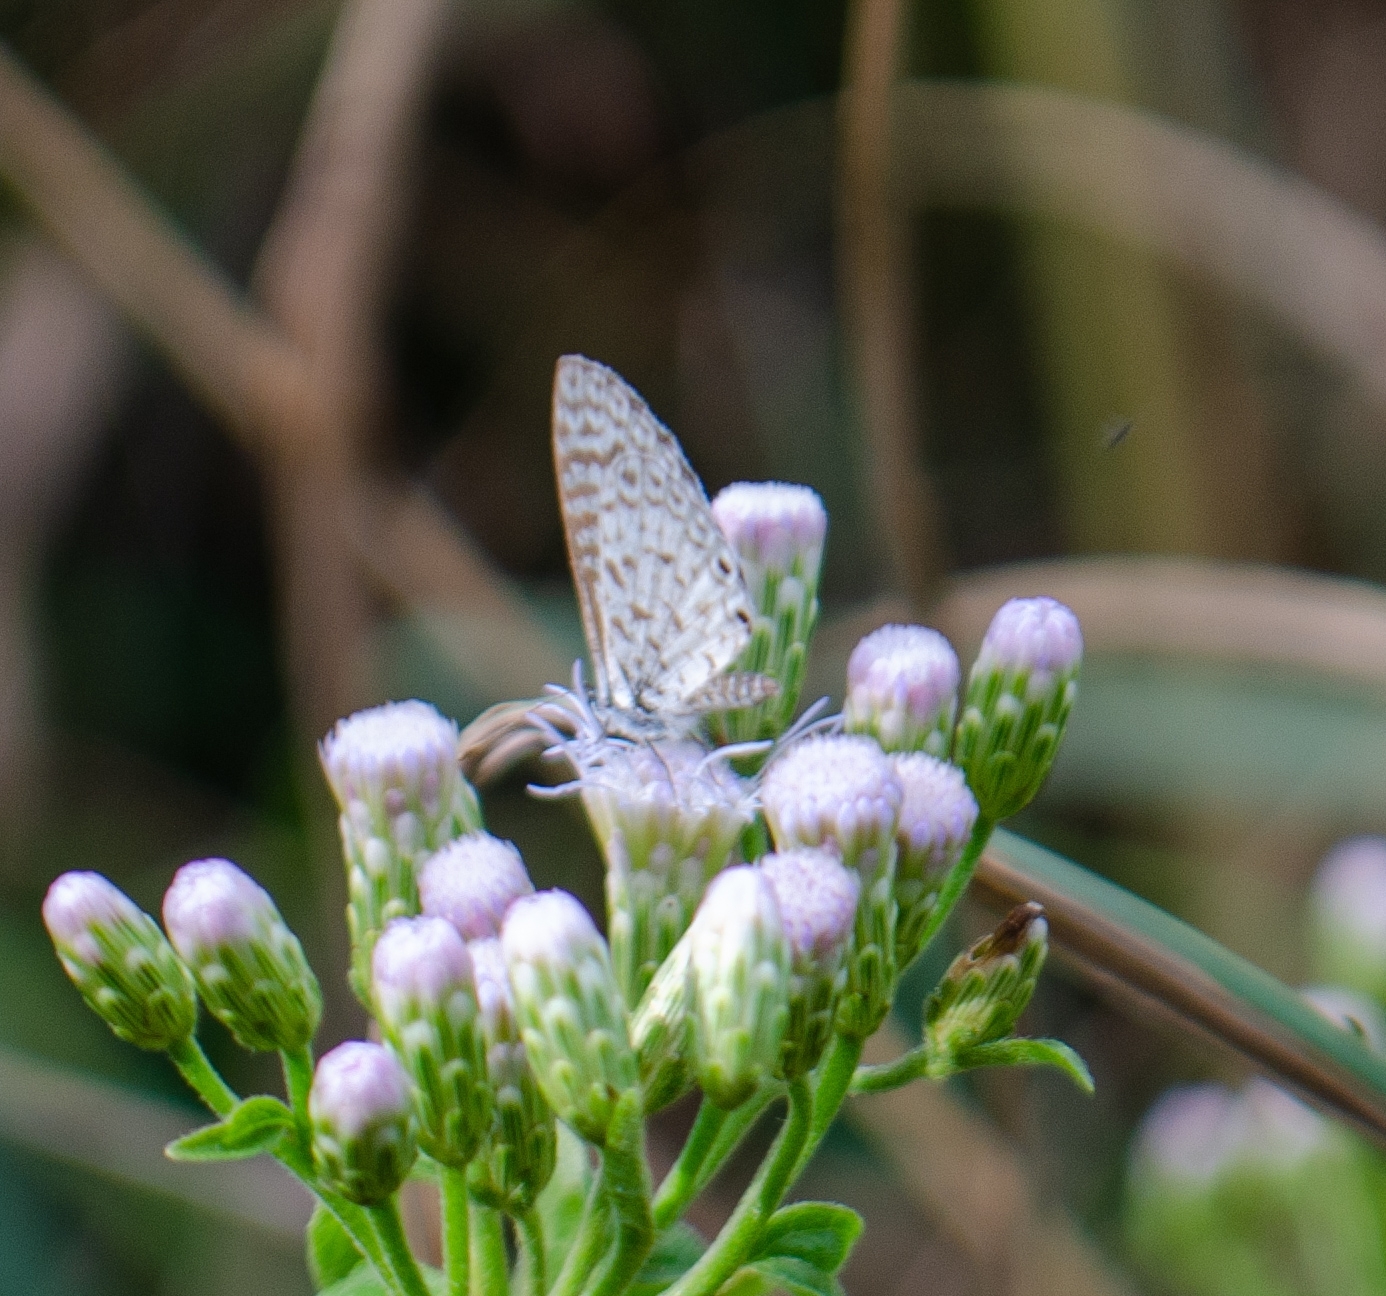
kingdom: Animalia
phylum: Arthropoda
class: Insecta
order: Lepidoptera
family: Lycaenidae
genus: Leptotes
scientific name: Leptotes cassius
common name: Cassius blue
